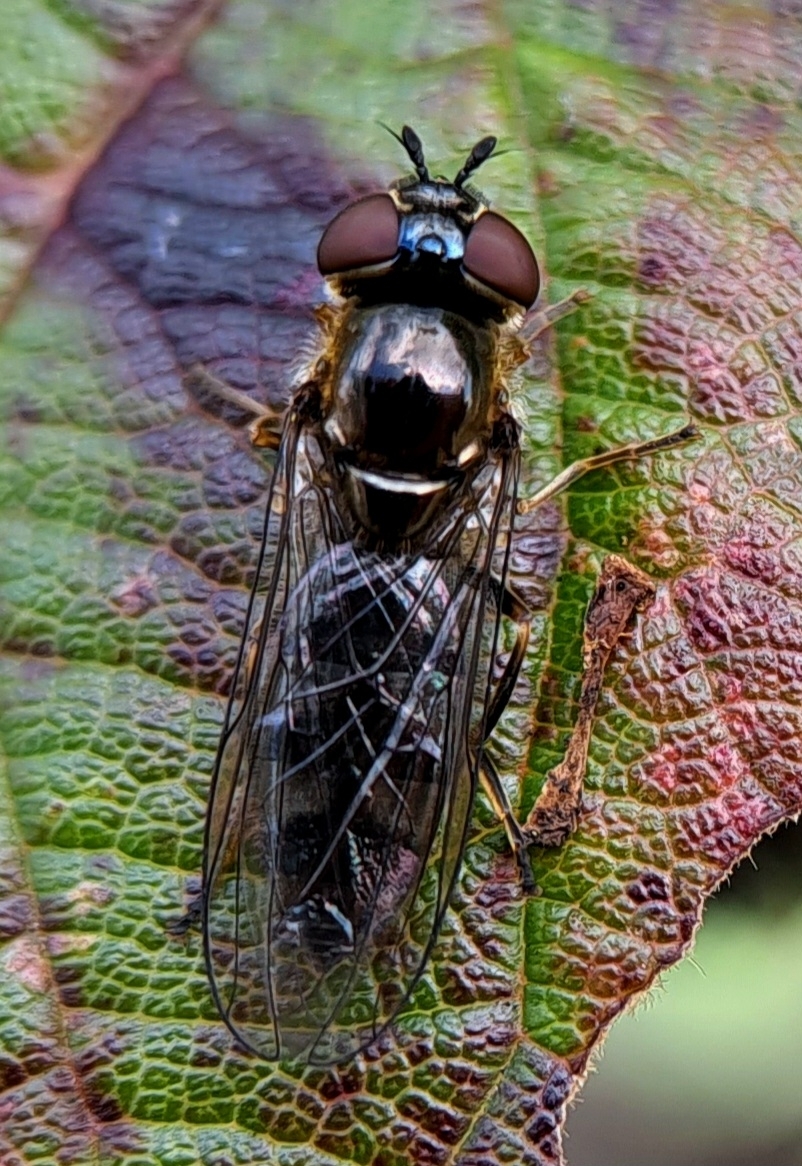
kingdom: Animalia
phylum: Arthropoda
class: Insecta
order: Diptera
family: Syrphidae
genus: Platycheirus
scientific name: Platycheirus albimanus
